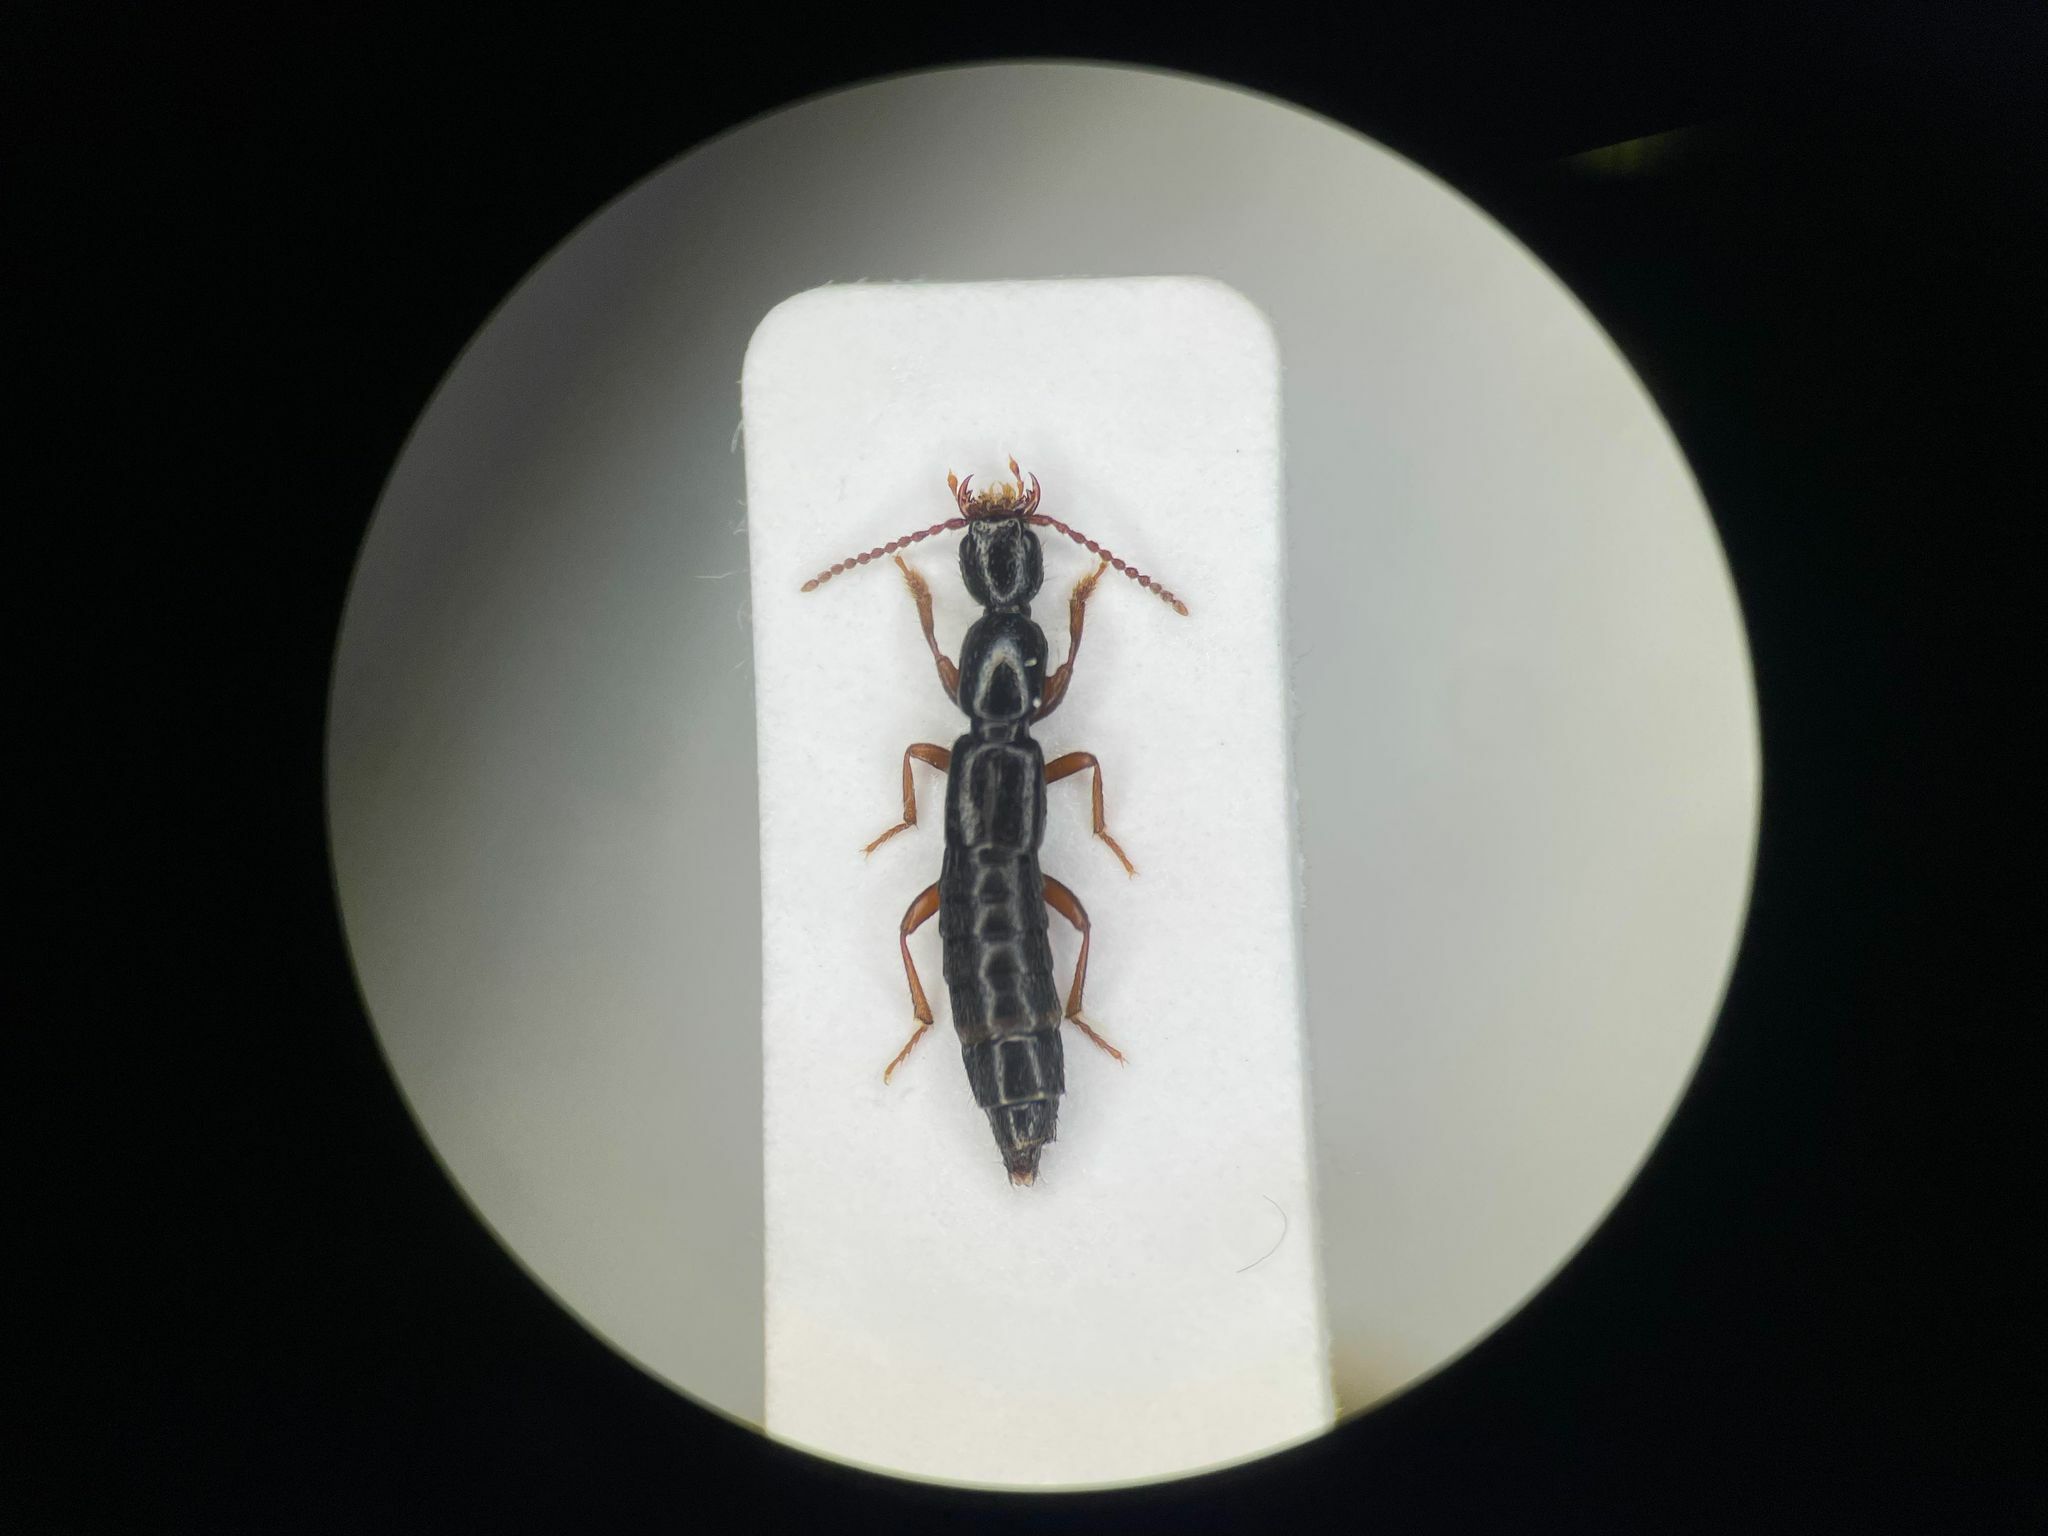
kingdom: Animalia
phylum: Arthropoda
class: Insecta
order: Coleoptera
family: Staphylinidae
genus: Lathrobium
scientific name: Lathrobium fauveli
